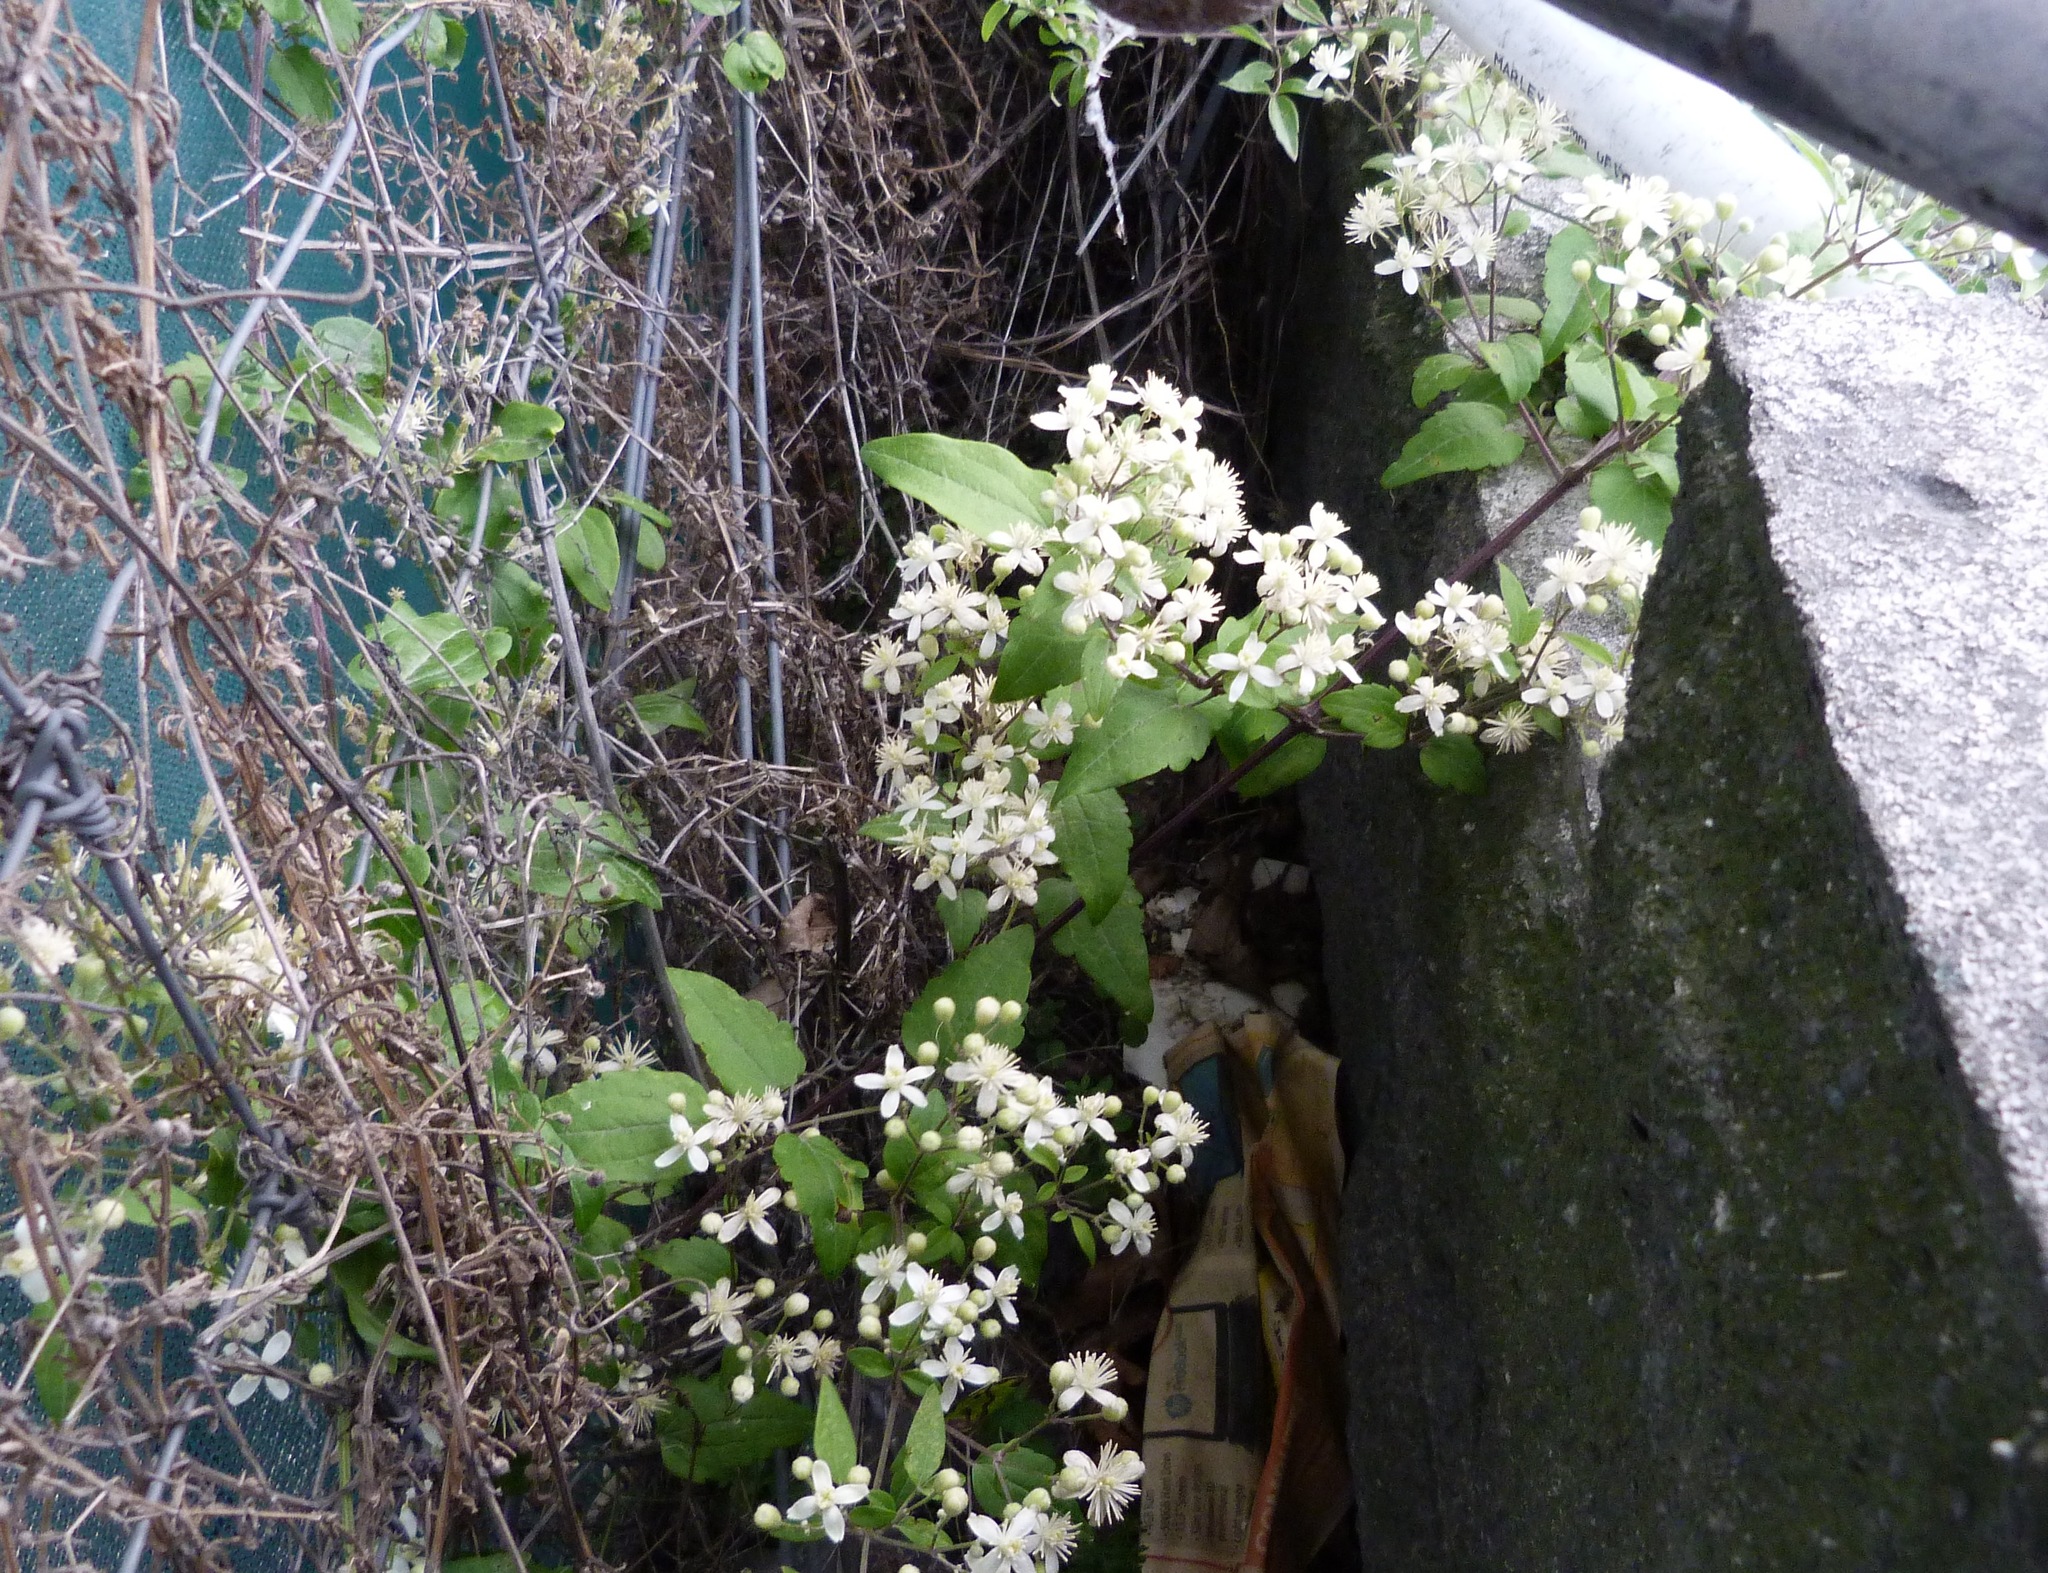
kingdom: Plantae
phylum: Tracheophyta
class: Magnoliopsida
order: Ranunculales
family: Ranunculaceae
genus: Clematis
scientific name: Clematis vitalba
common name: Evergreen clematis
